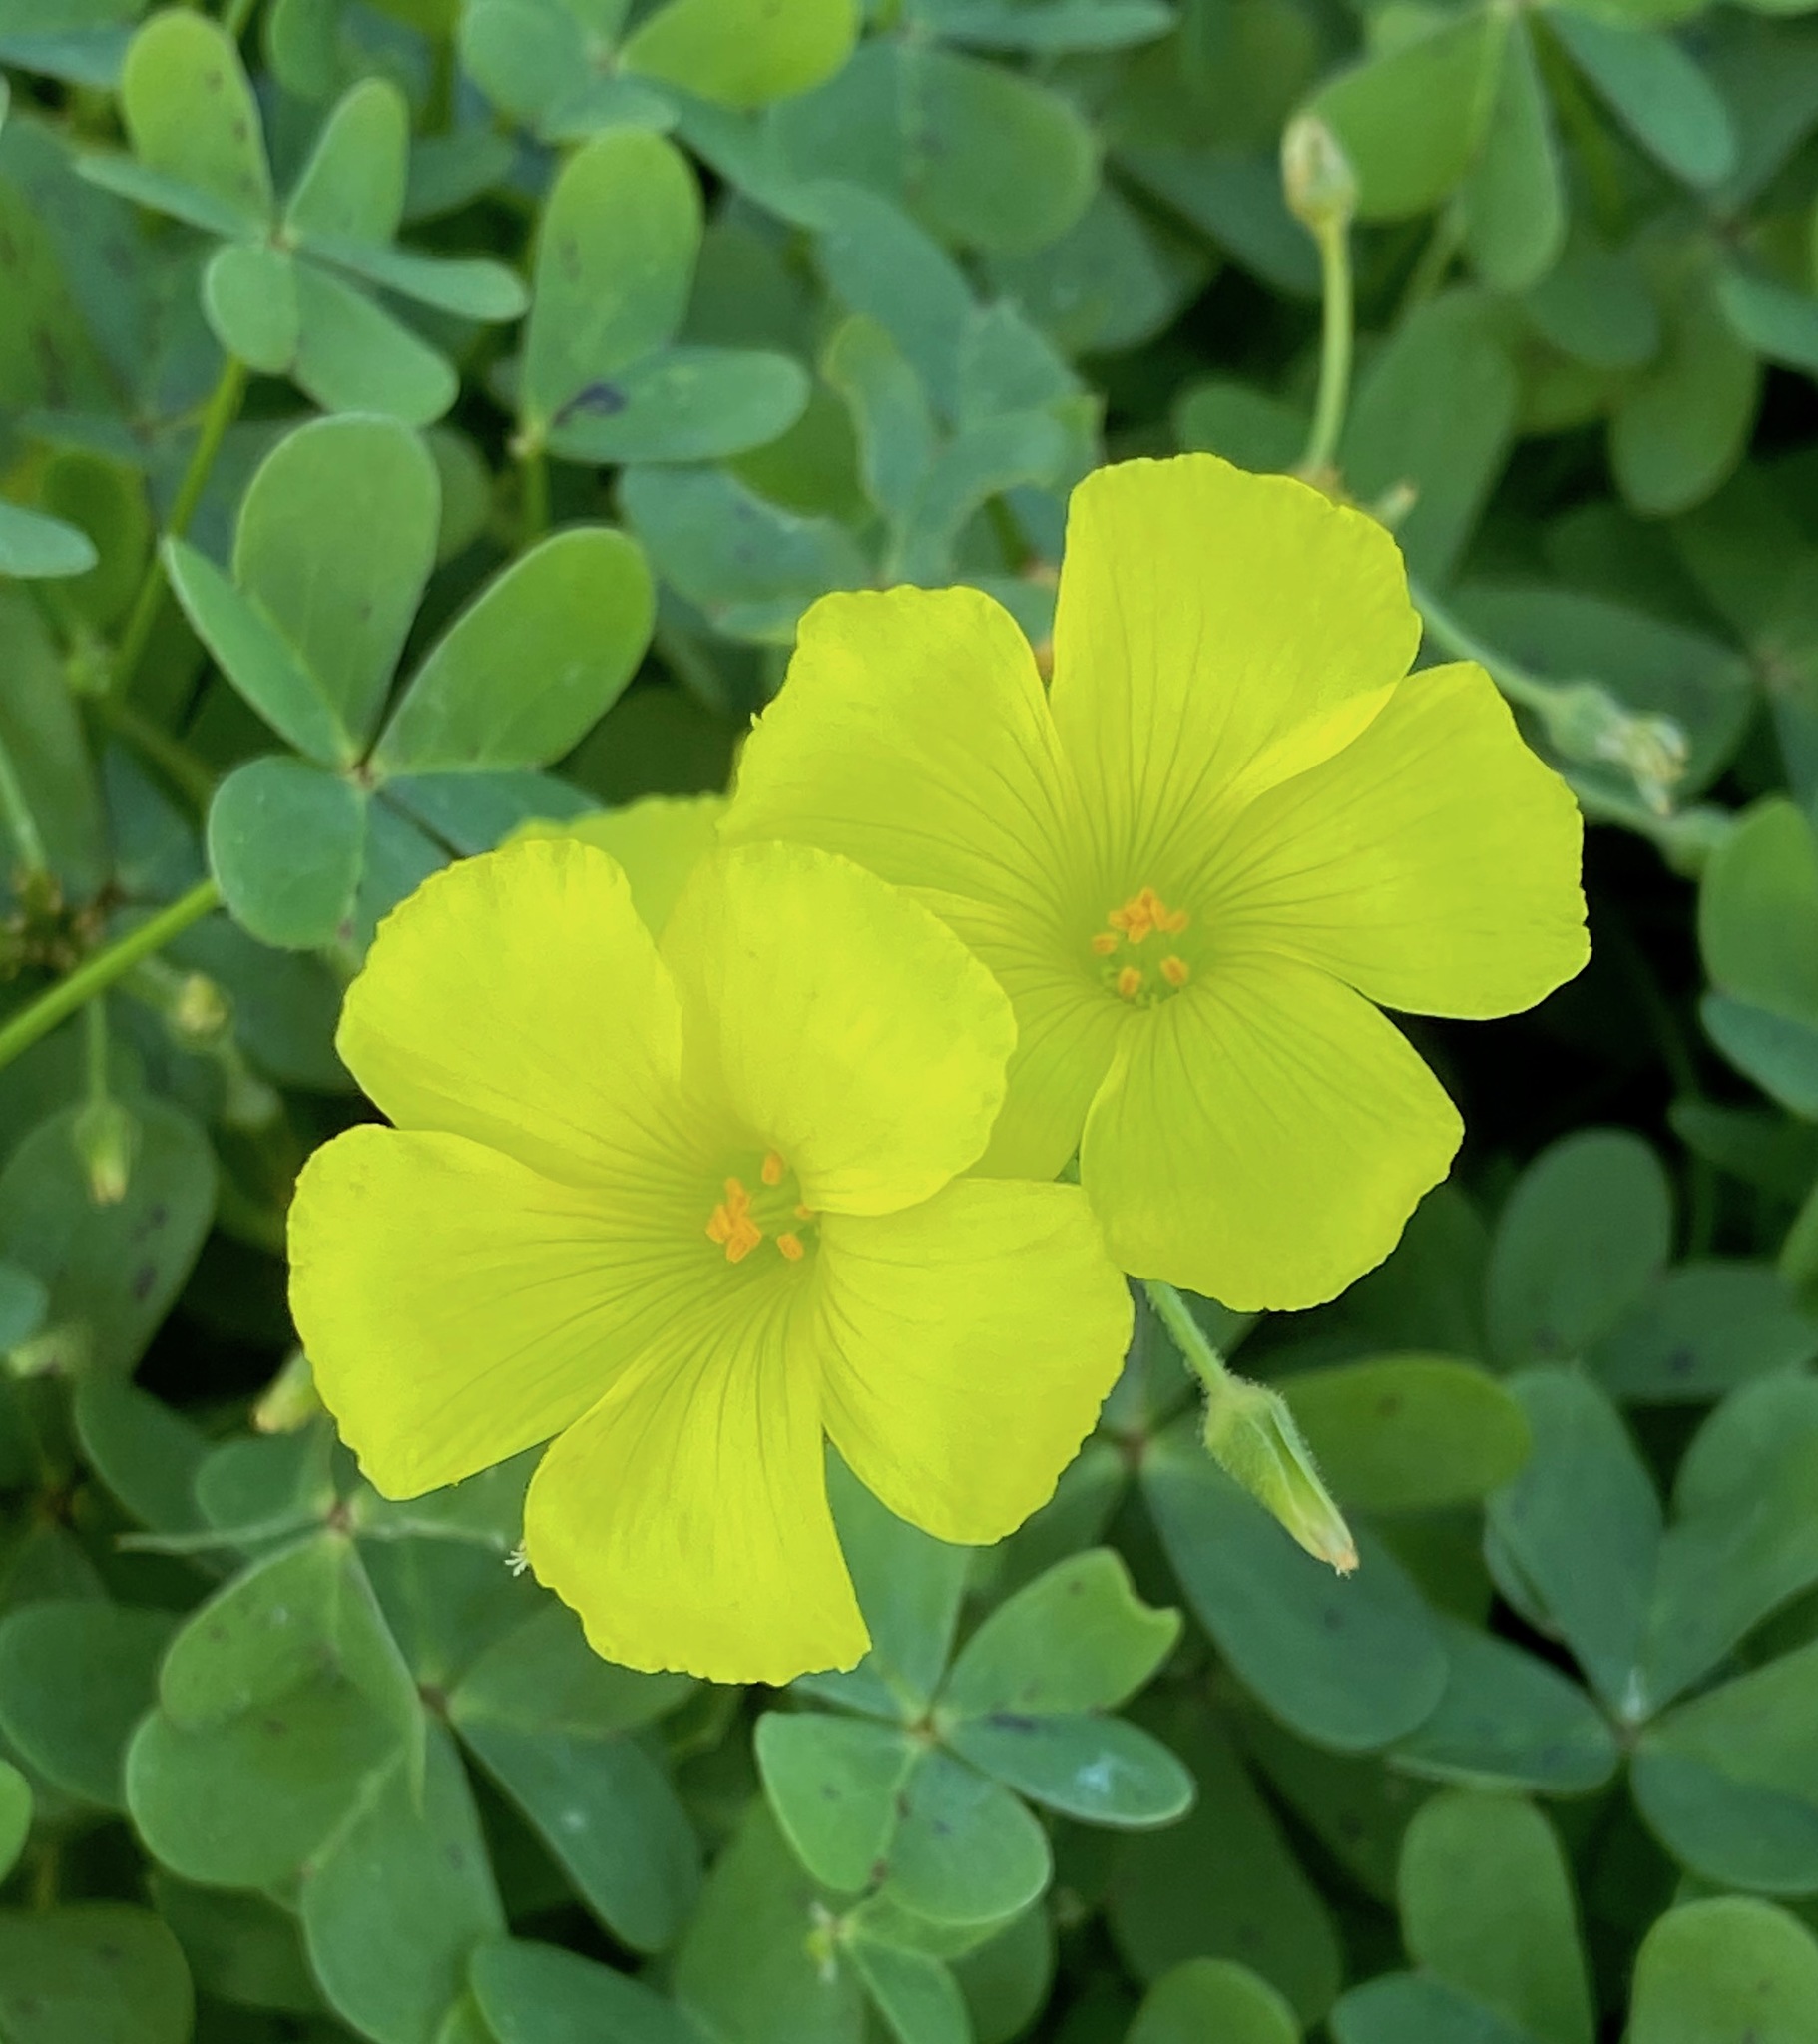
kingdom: Plantae
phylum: Tracheophyta
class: Magnoliopsida
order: Oxalidales
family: Oxalidaceae
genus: Oxalis
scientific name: Oxalis pes-caprae
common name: Bermuda-buttercup
